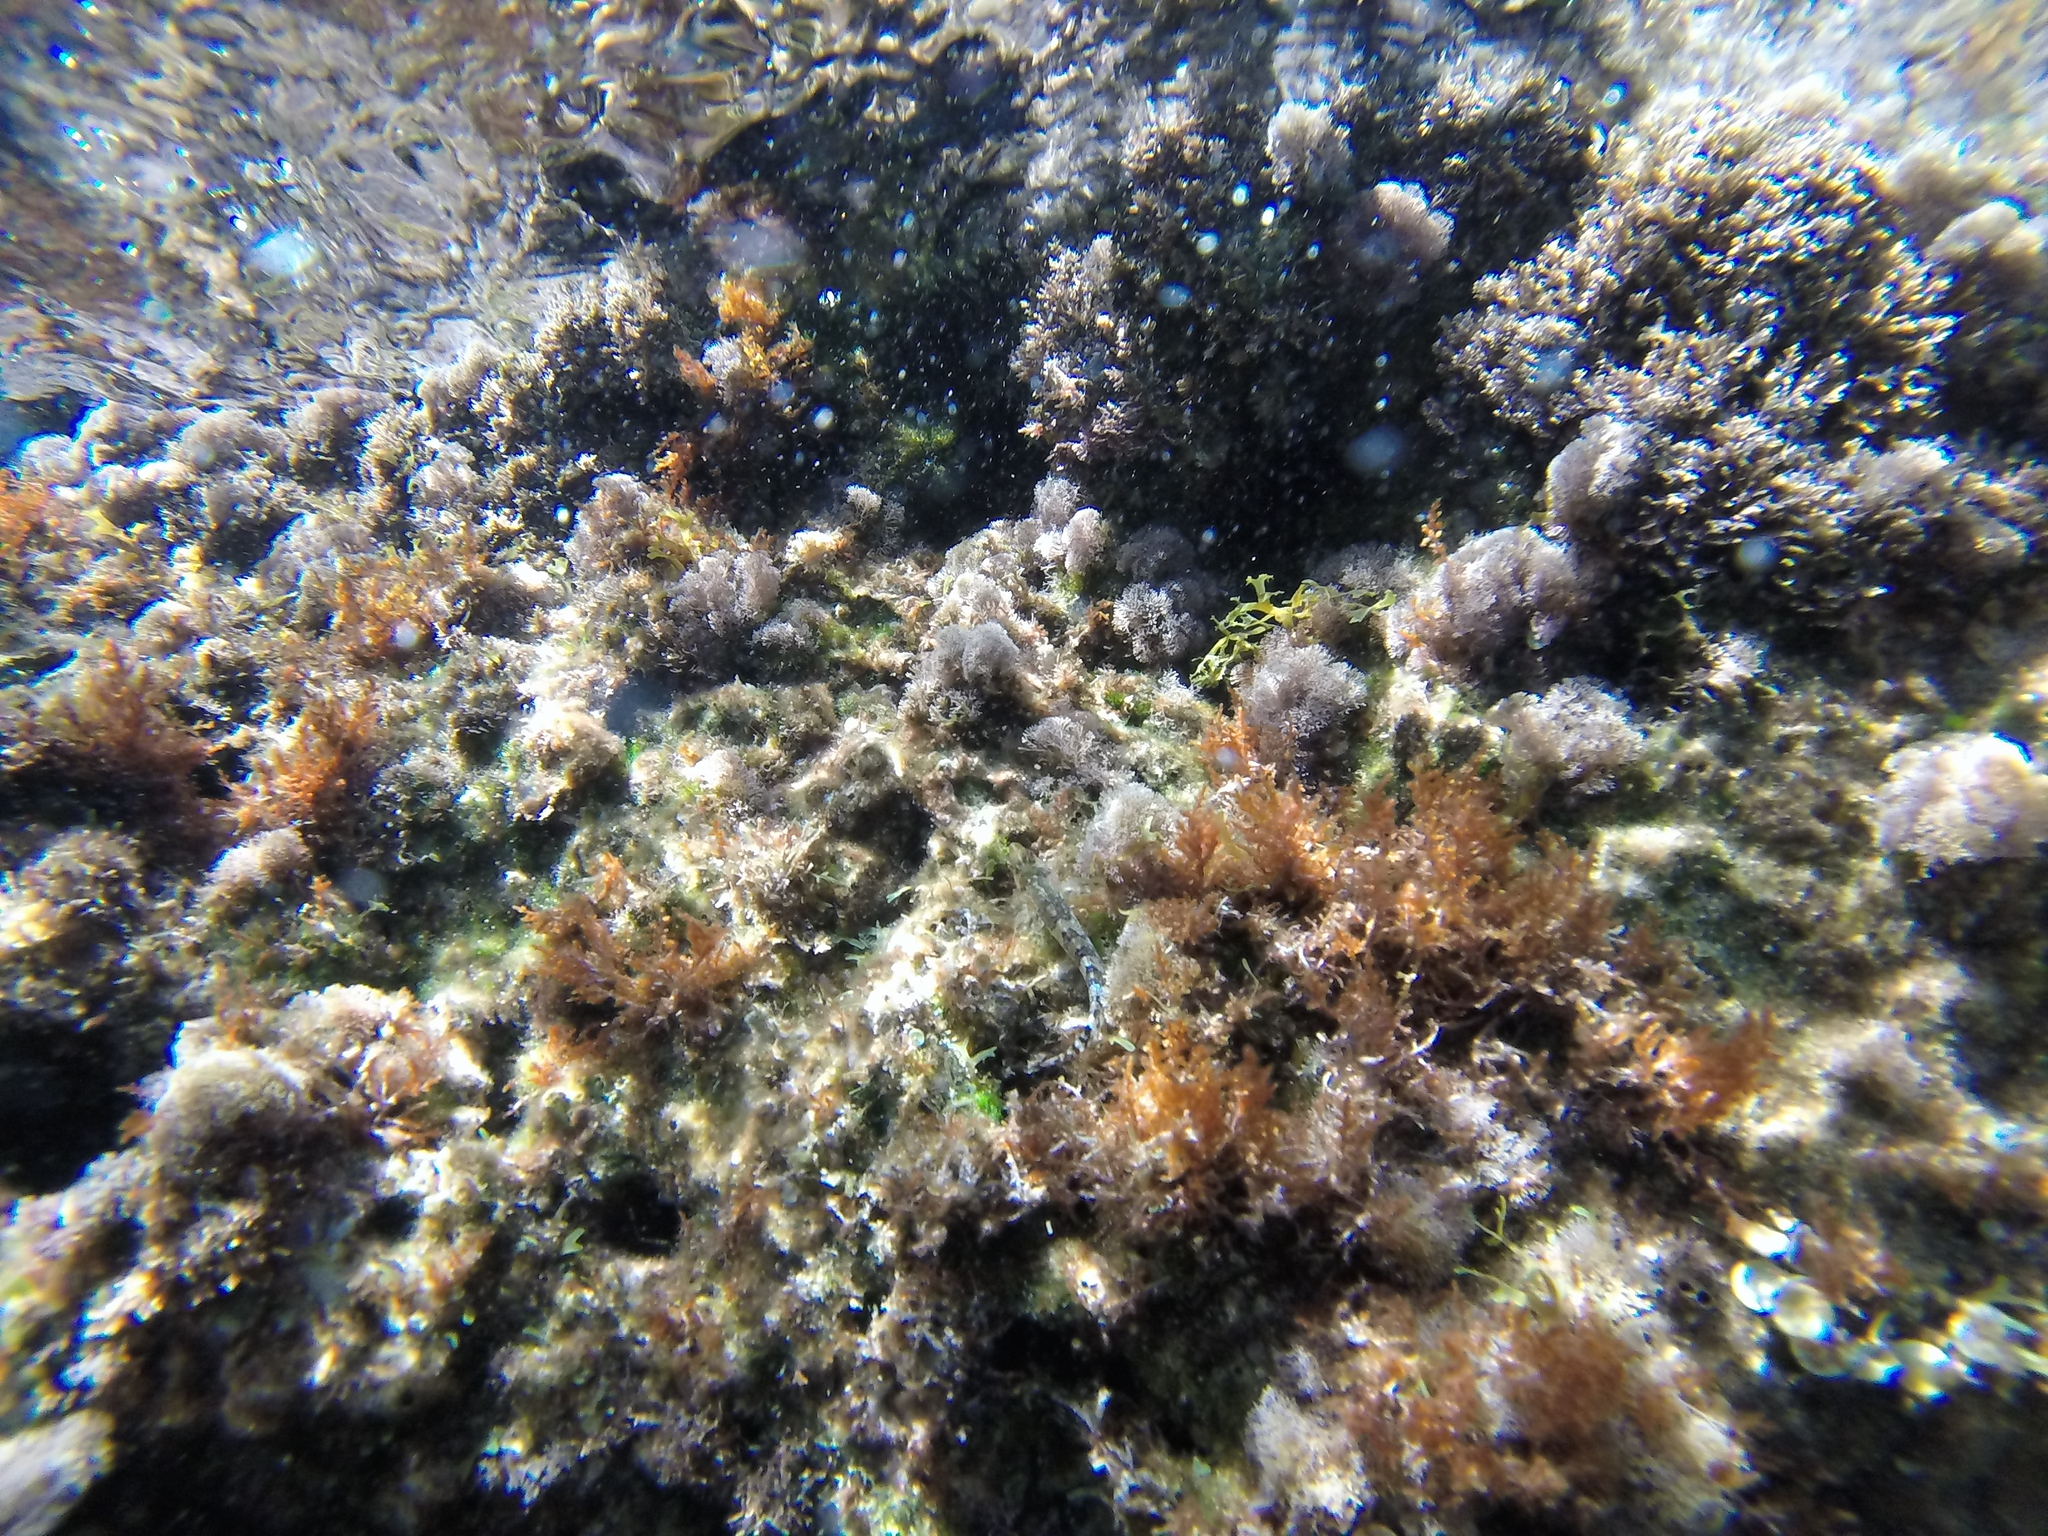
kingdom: Animalia
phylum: Chordata
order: Perciformes
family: Tripterygiidae
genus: Tripterygion
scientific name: Tripterygion tripteronotum
